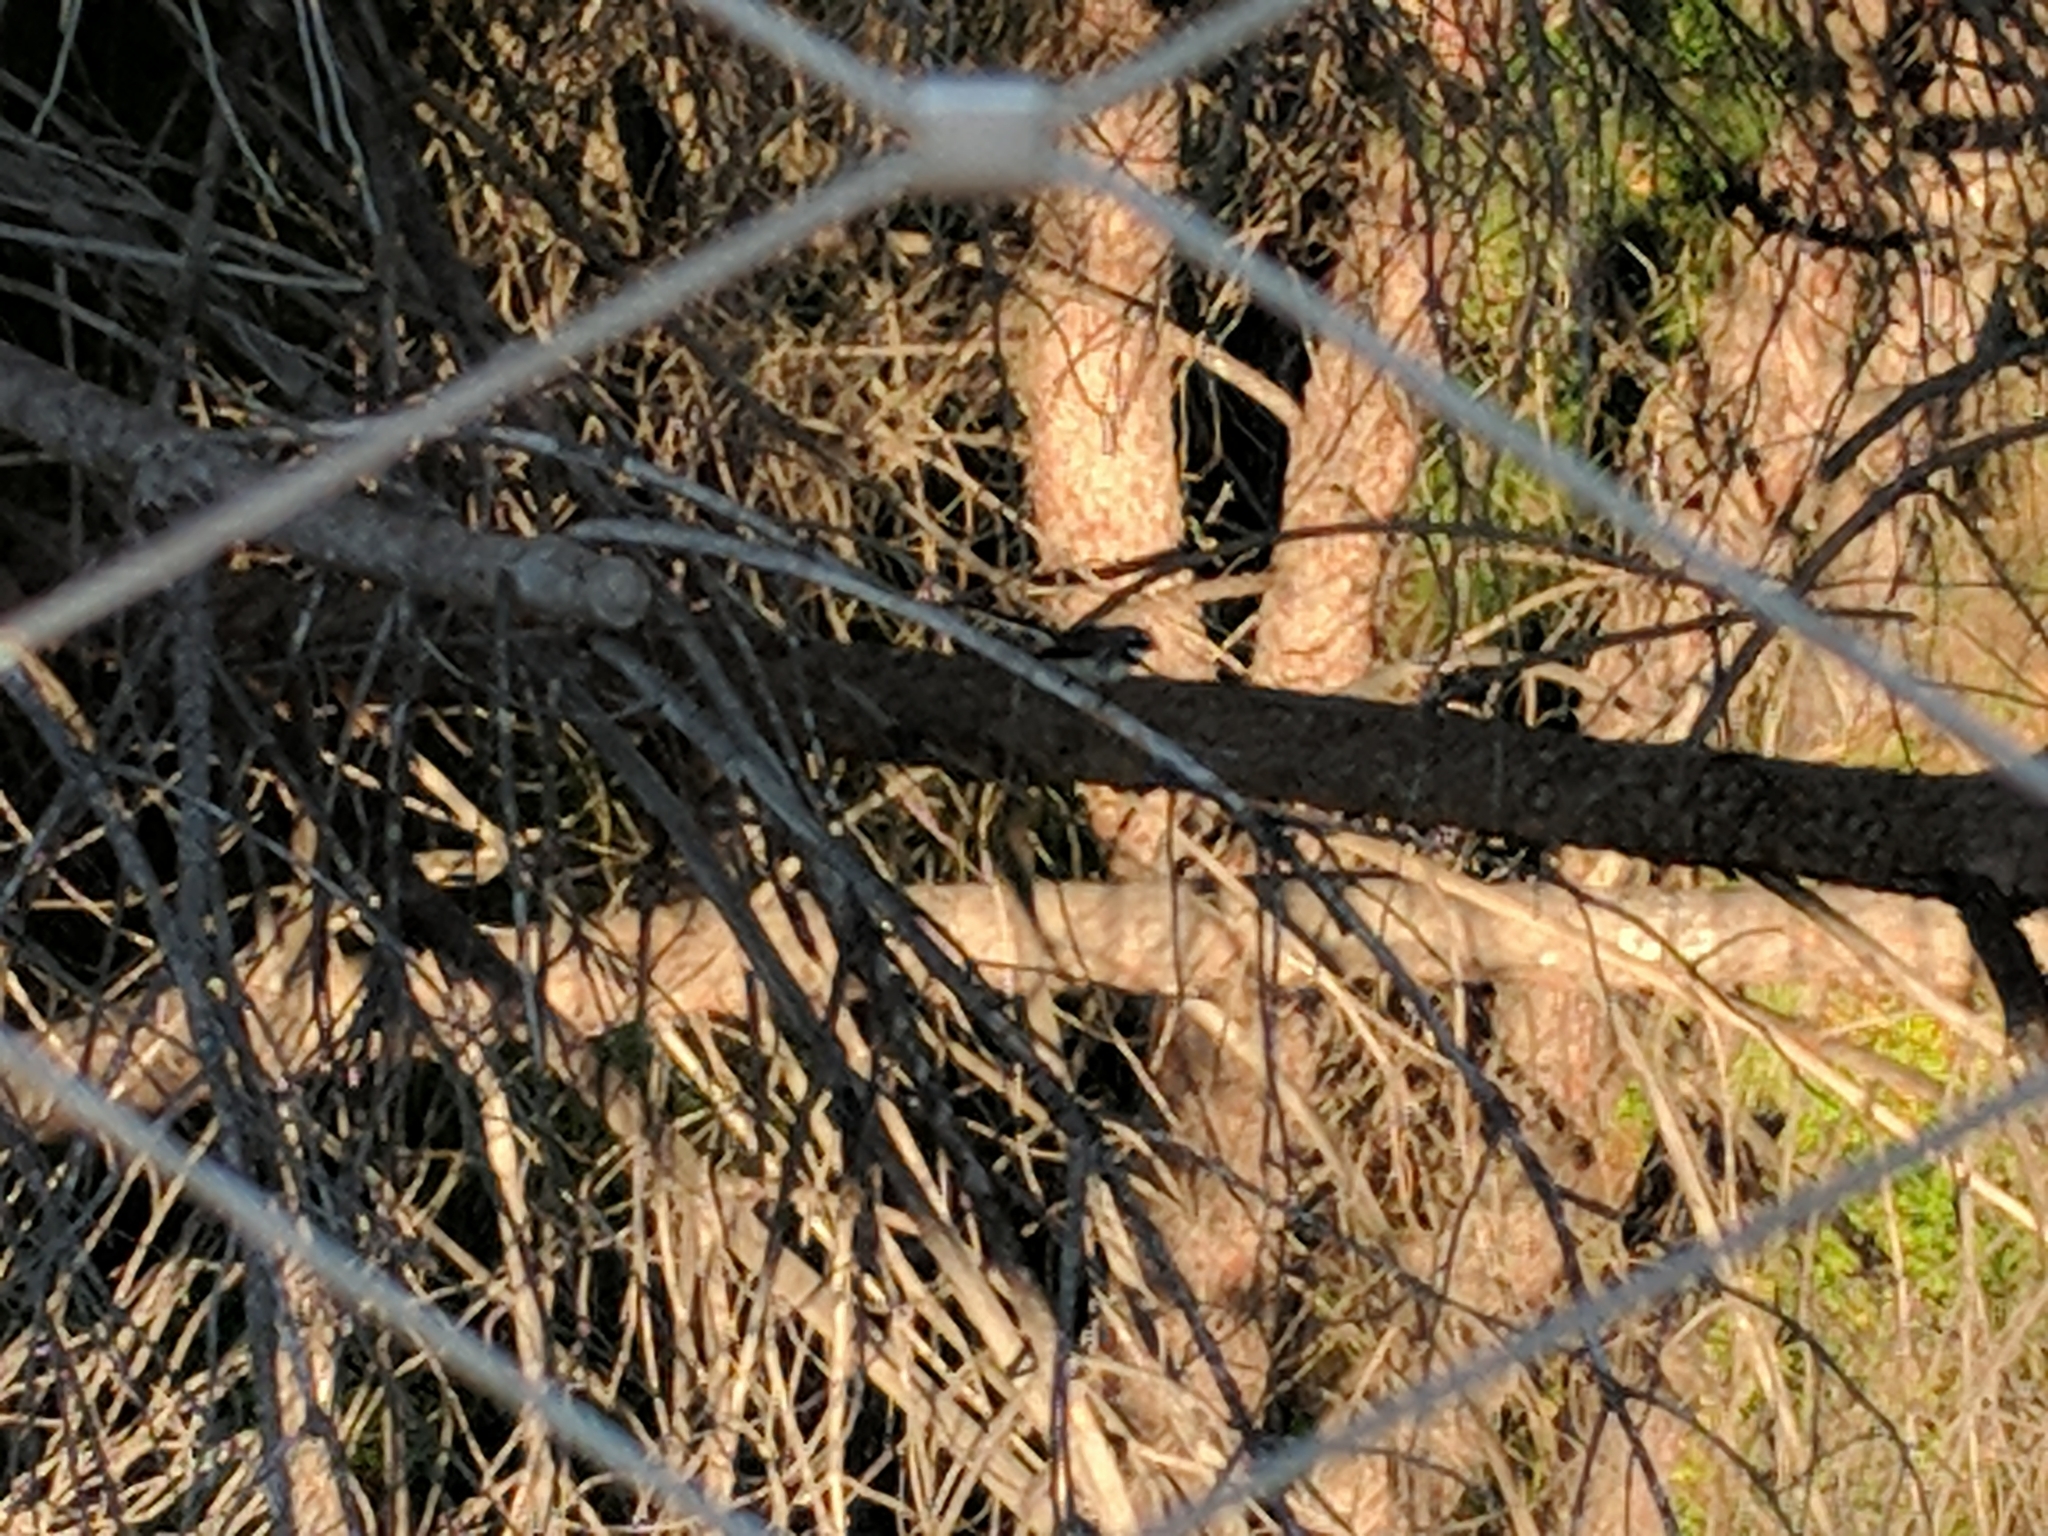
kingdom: Animalia
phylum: Chordata
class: Aves
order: Passeriformes
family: Rhipiduridae
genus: Rhipidura
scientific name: Rhipidura albiscapa
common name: Grey fantail
